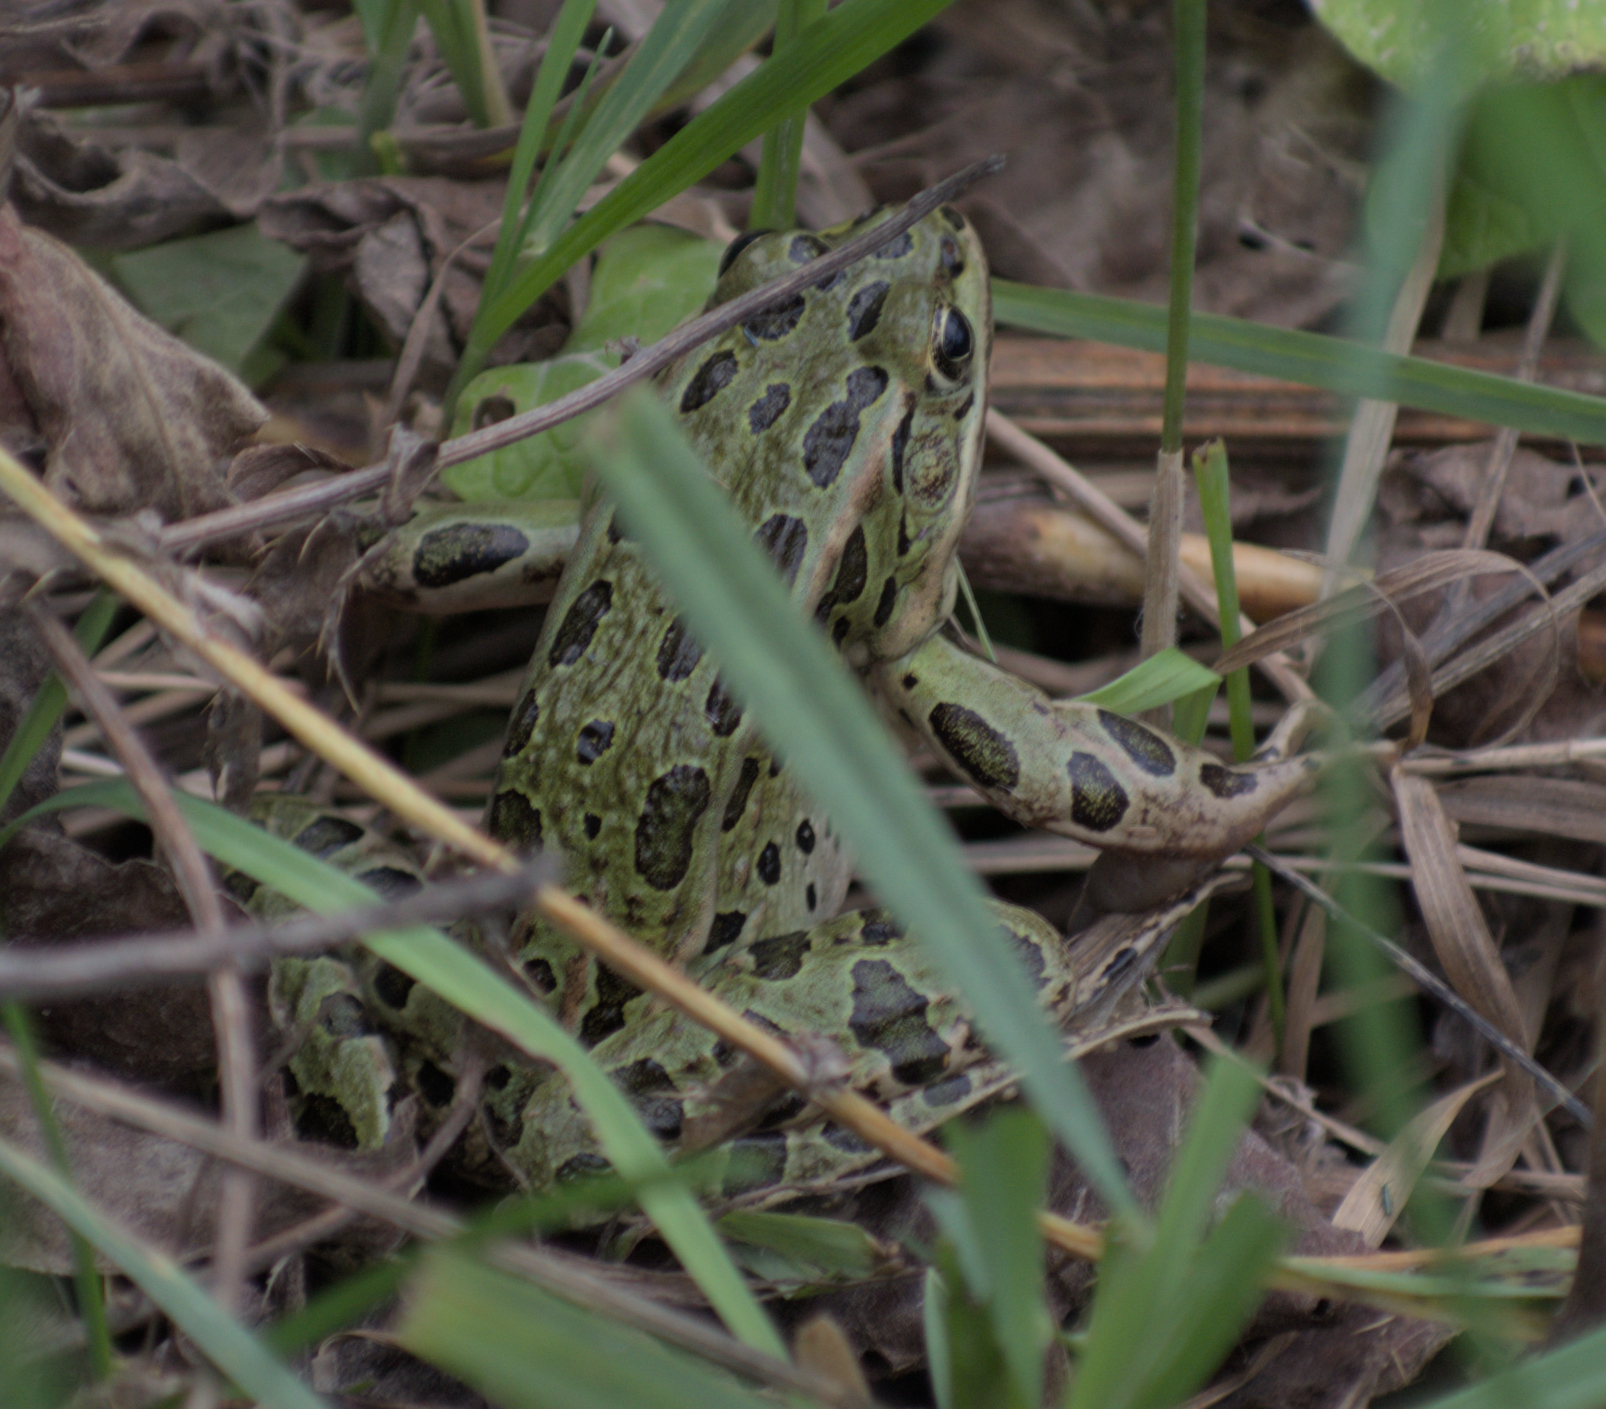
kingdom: Animalia
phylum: Chordata
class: Amphibia
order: Anura
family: Ranidae
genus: Lithobates
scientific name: Lithobates pipiens
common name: Northern leopard frog
